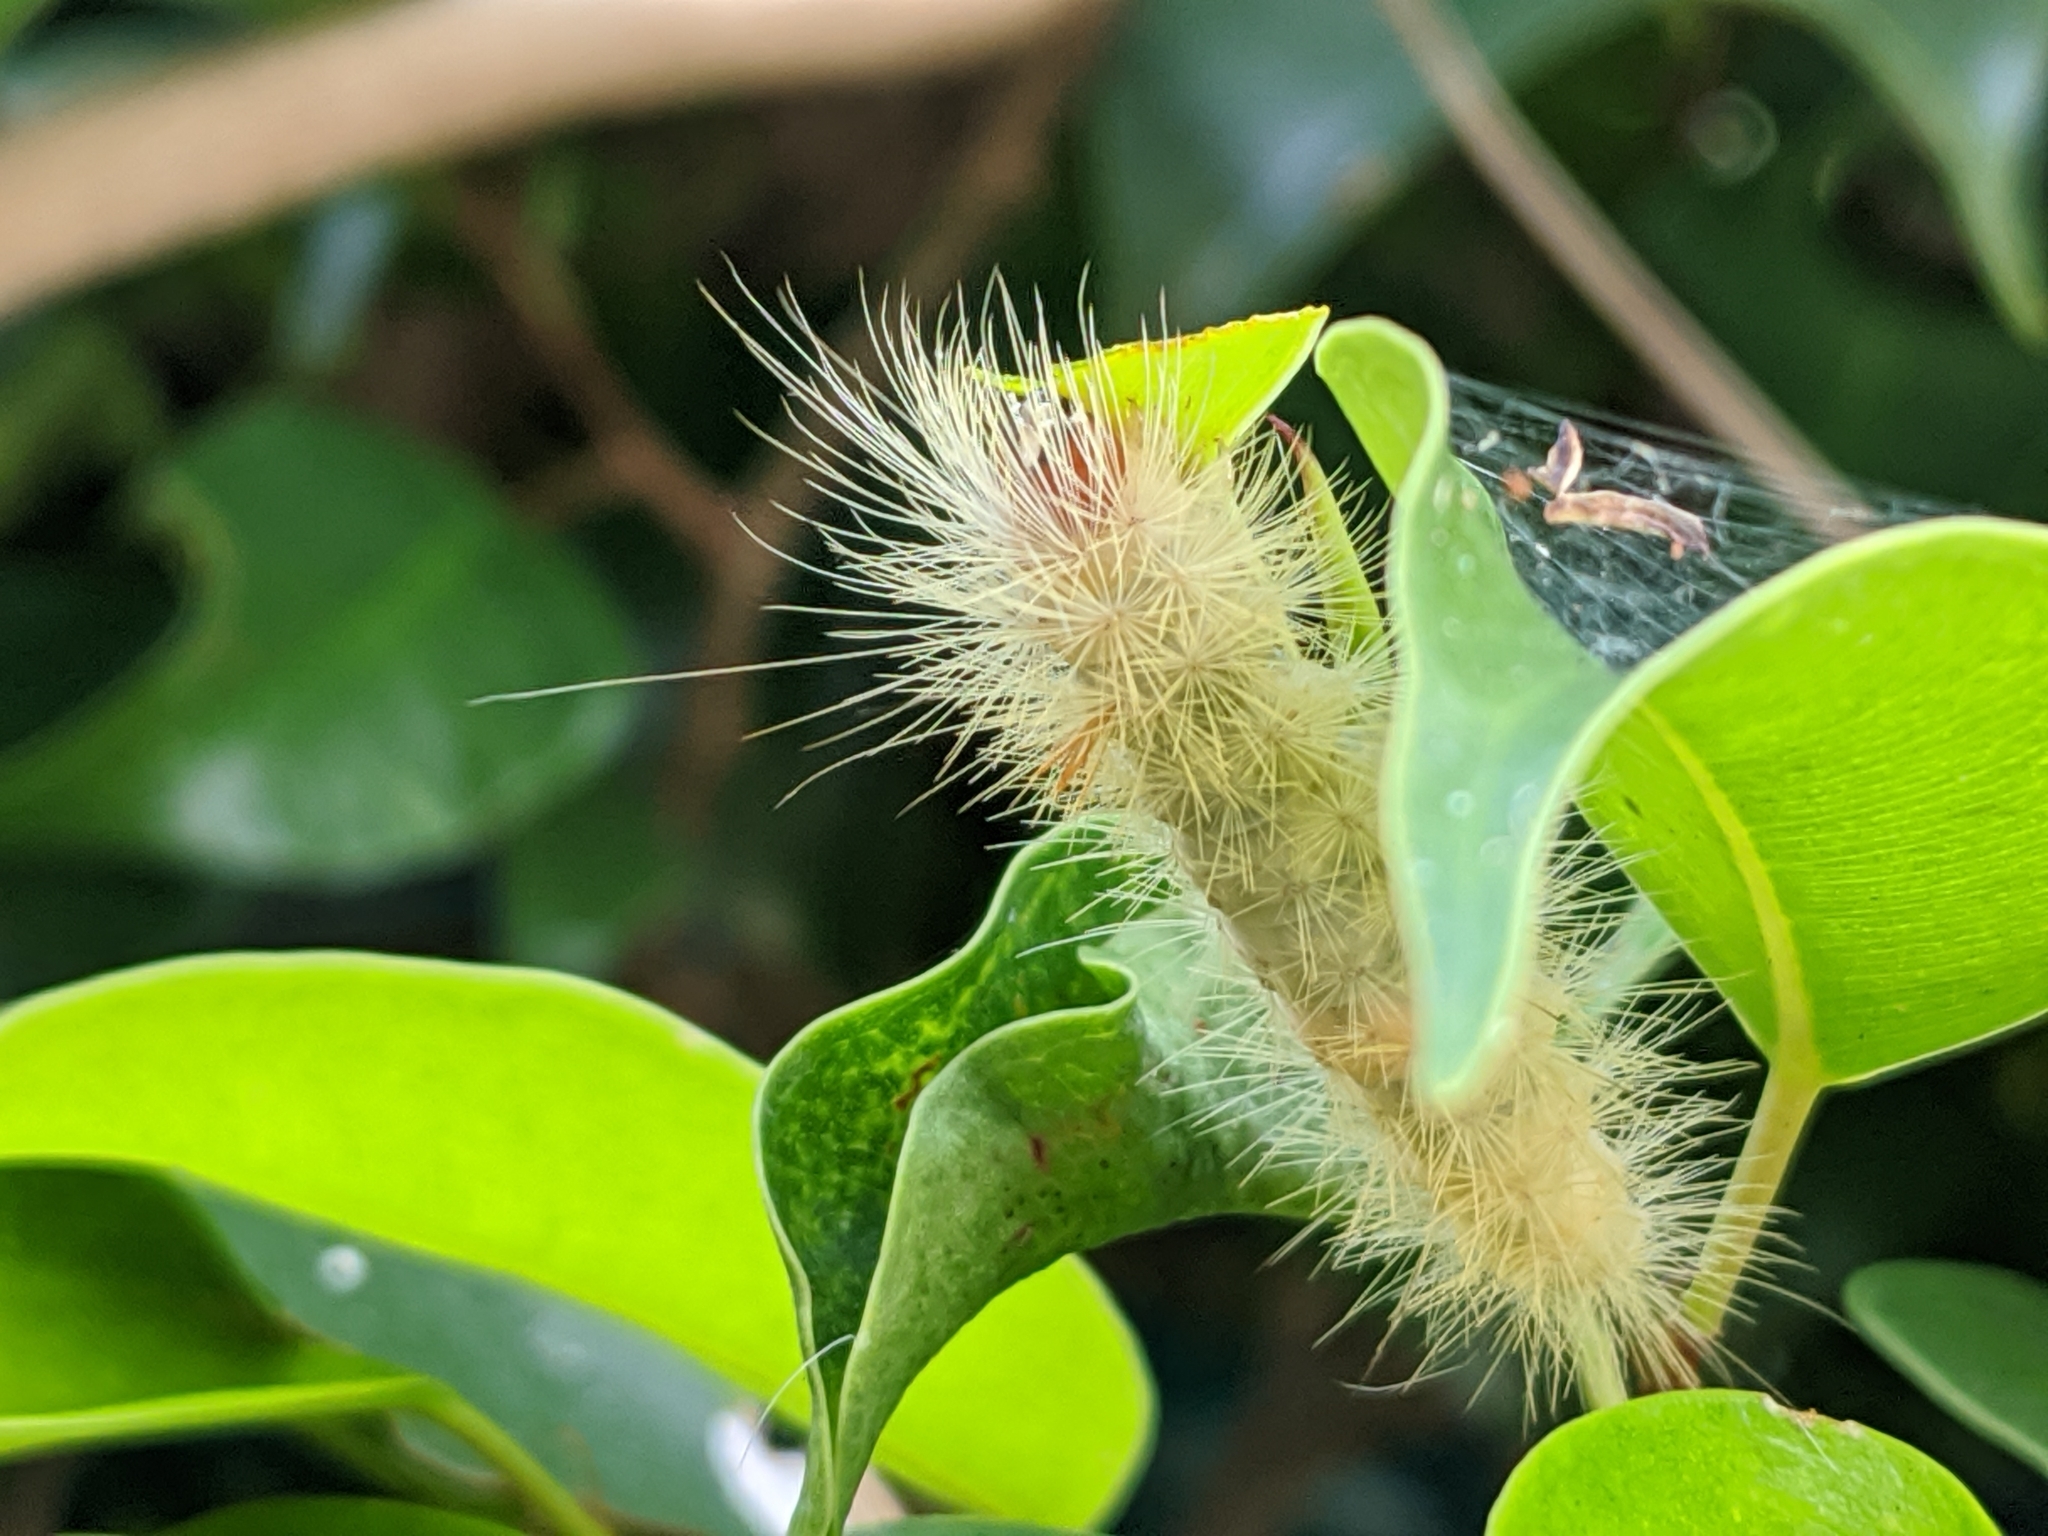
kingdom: Animalia
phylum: Arthropoda
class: Insecta
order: Lepidoptera
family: Erebidae
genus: Lymire
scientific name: Lymire edwardsii
